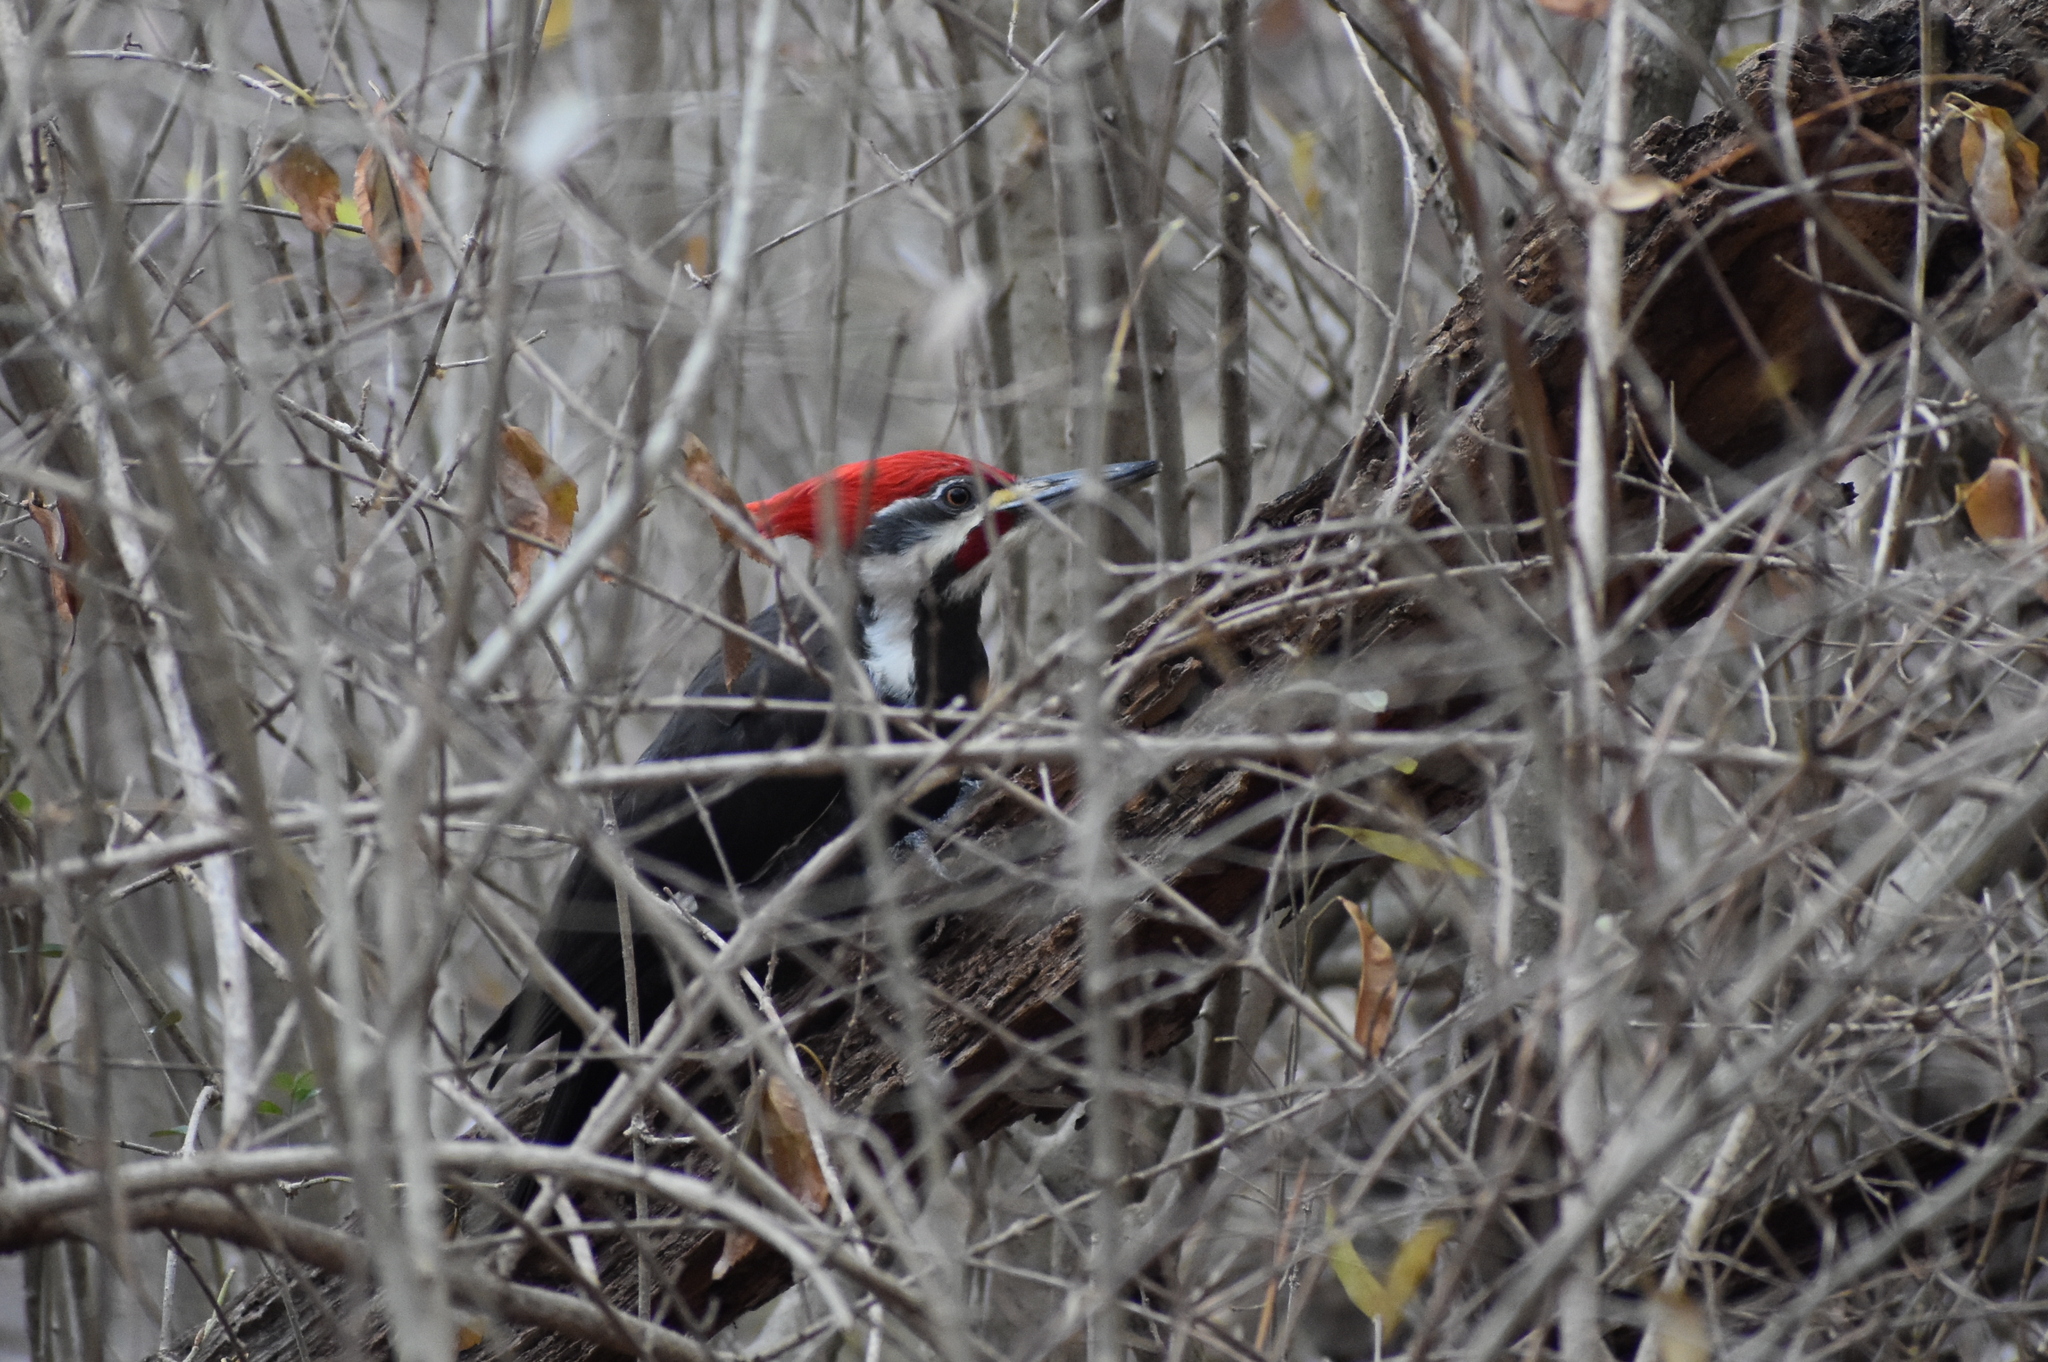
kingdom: Animalia
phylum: Chordata
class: Aves
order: Piciformes
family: Picidae
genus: Dryocopus
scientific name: Dryocopus pileatus
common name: Pileated woodpecker
